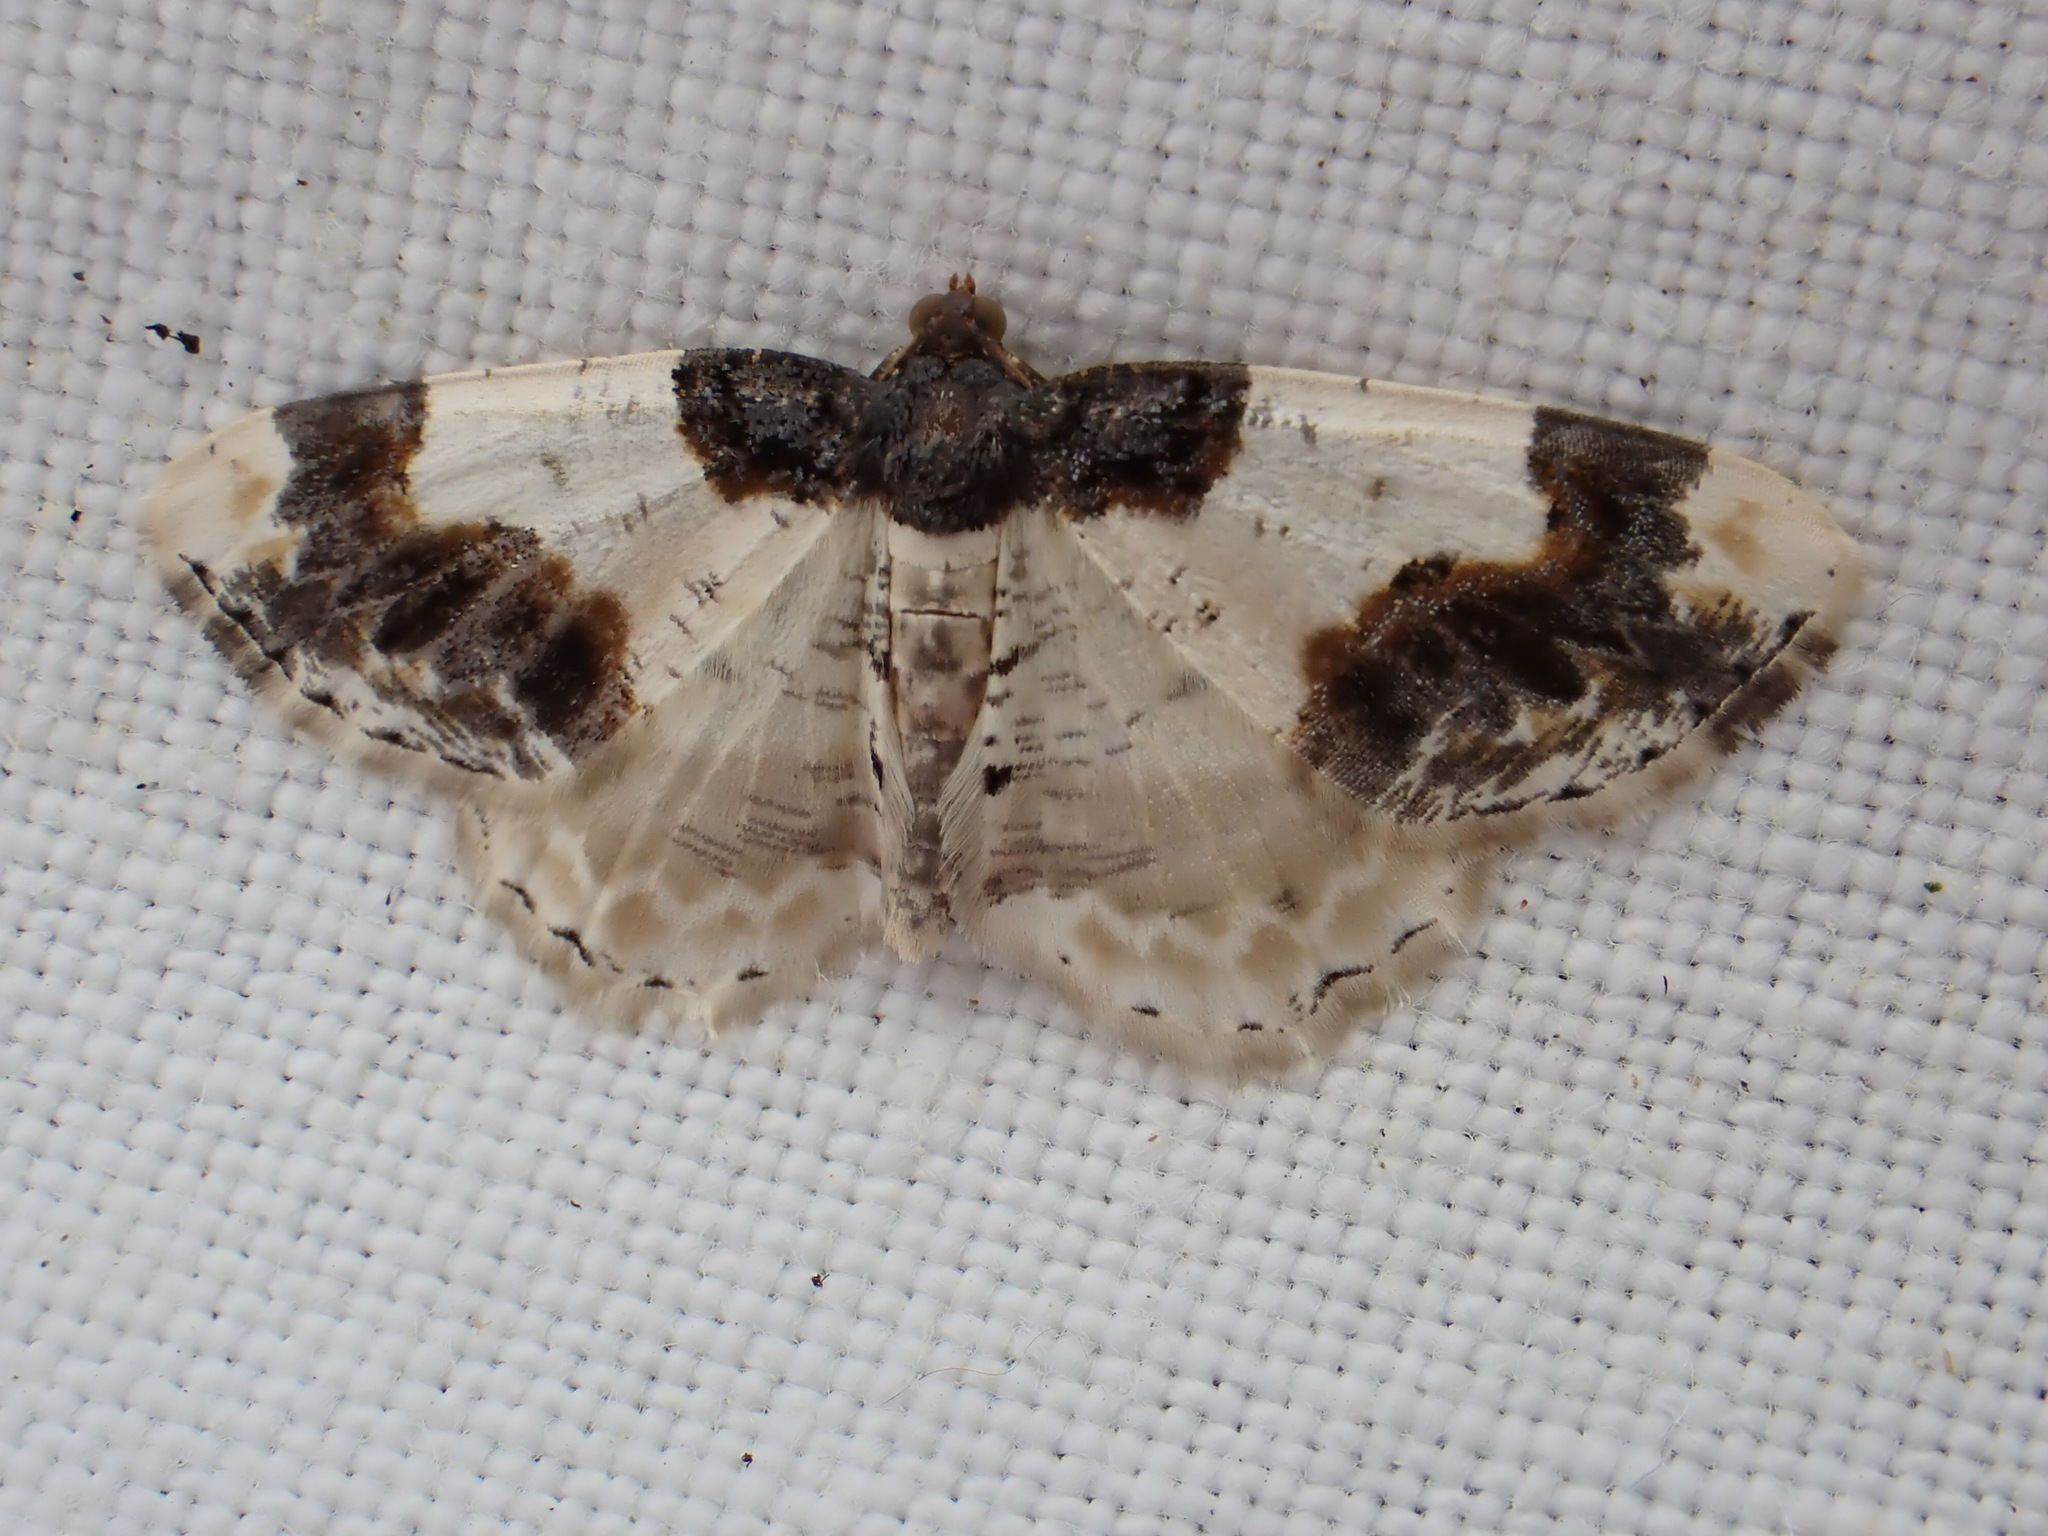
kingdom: Animalia
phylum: Arthropoda
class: Insecta
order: Lepidoptera
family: Geometridae
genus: Ligdia
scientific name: Ligdia adustata
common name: Scorched carpet
